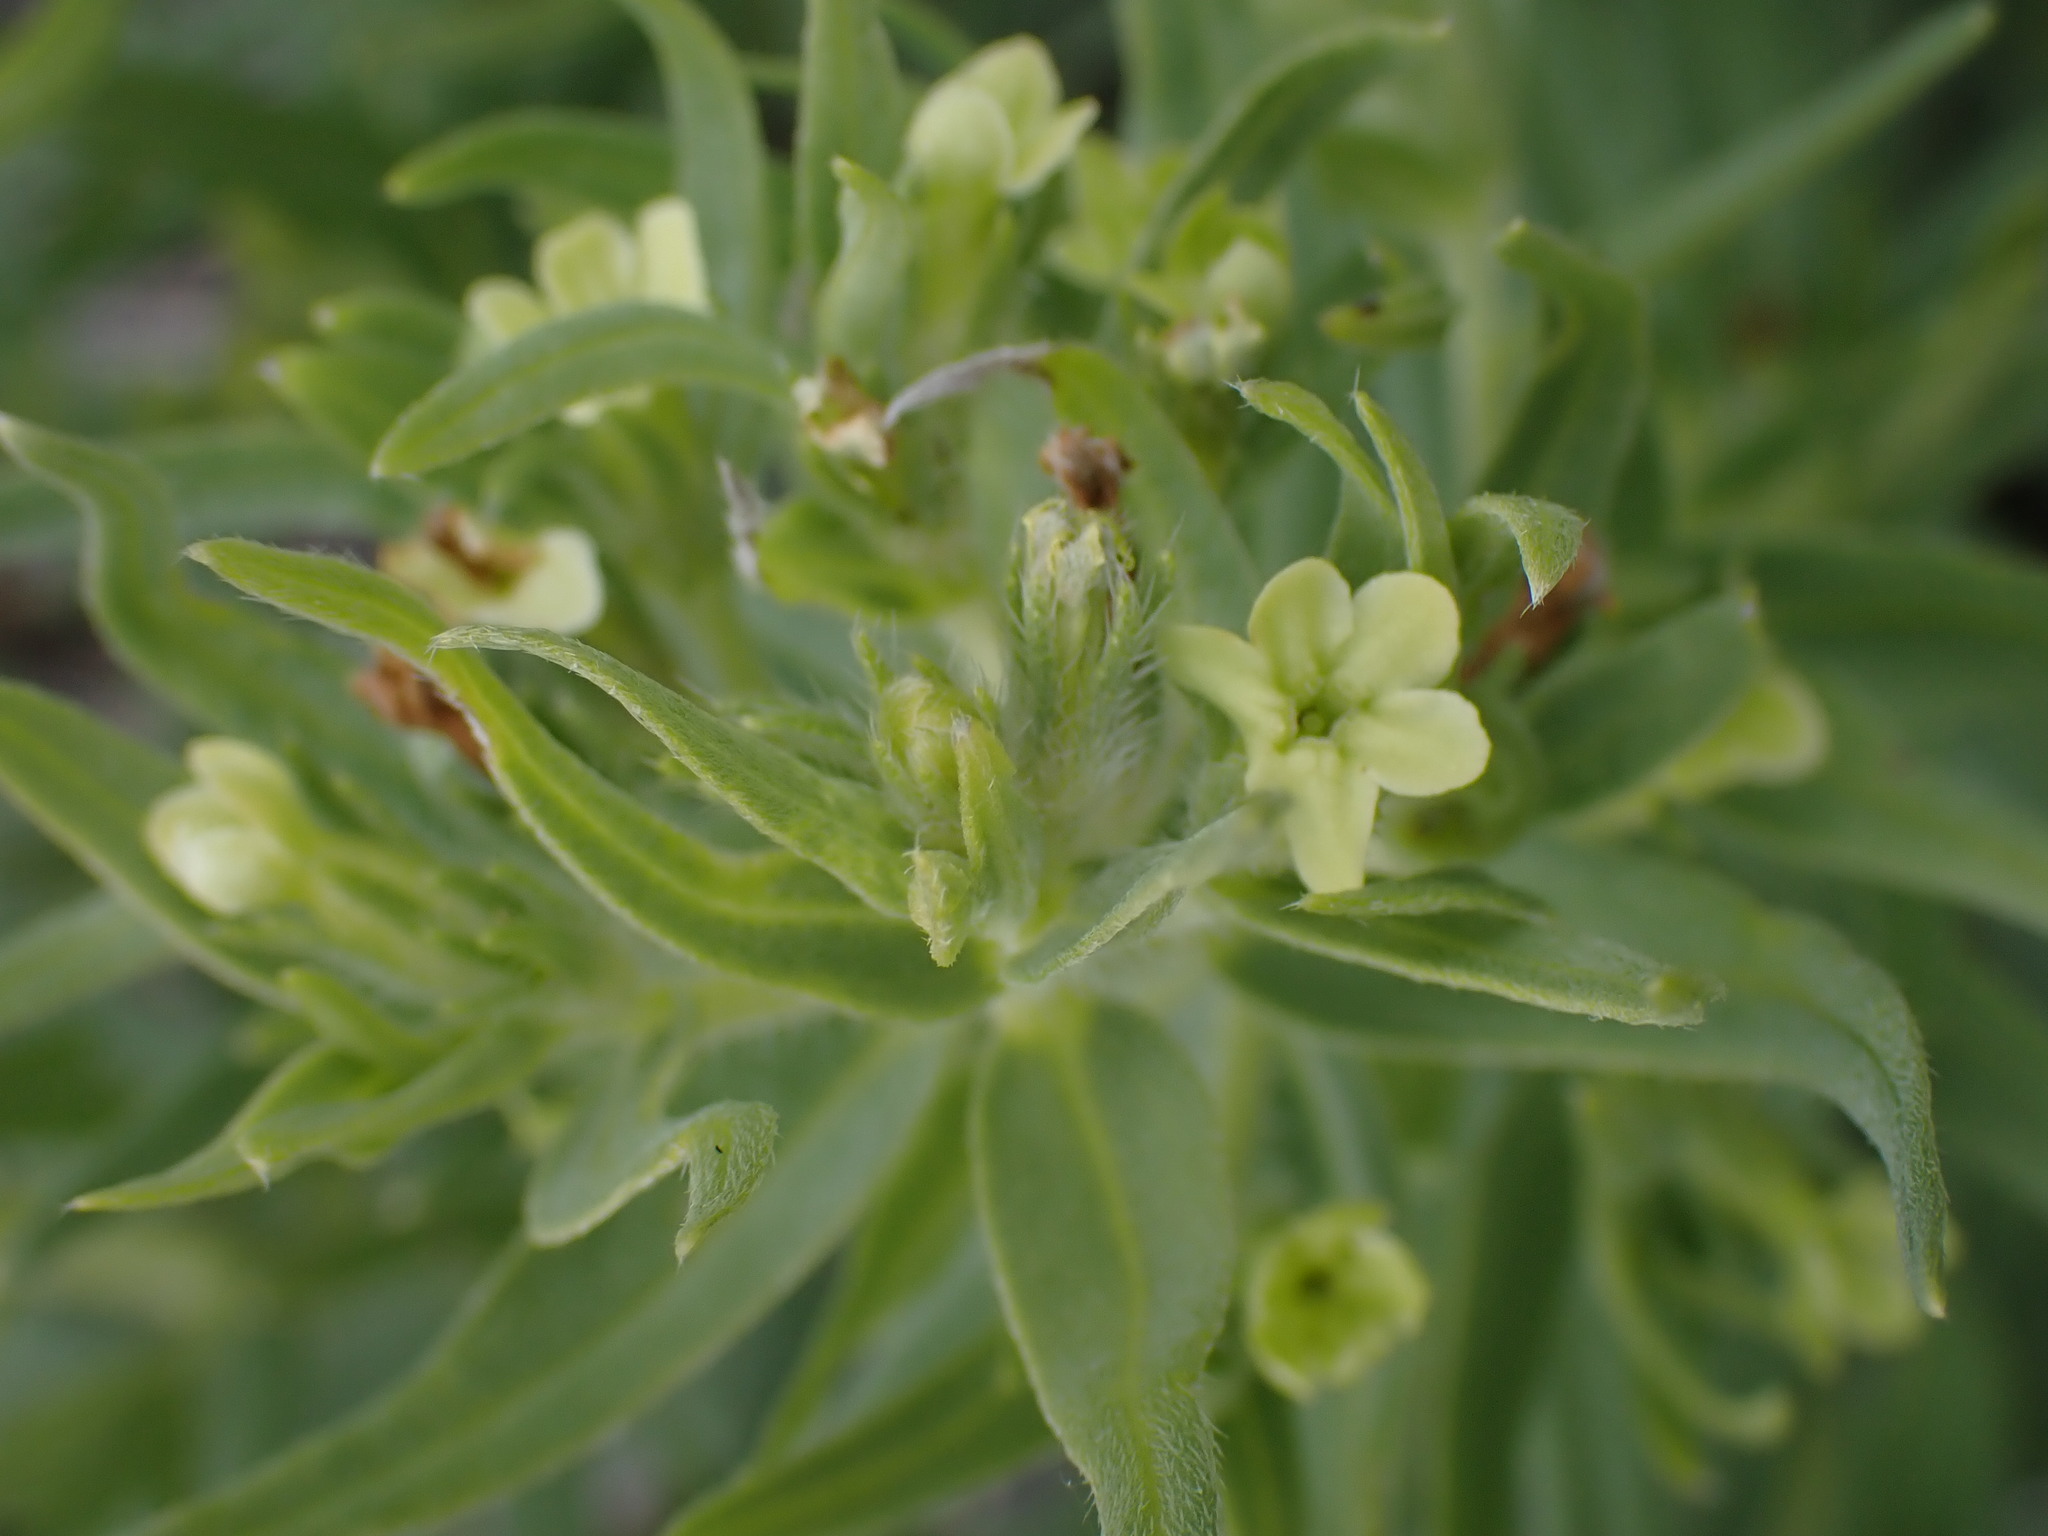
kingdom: Plantae
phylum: Tracheophyta
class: Magnoliopsida
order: Boraginales
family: Boraginaceae
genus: Lithospermum
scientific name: Lithospermum ruderale
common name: Western gromwell
